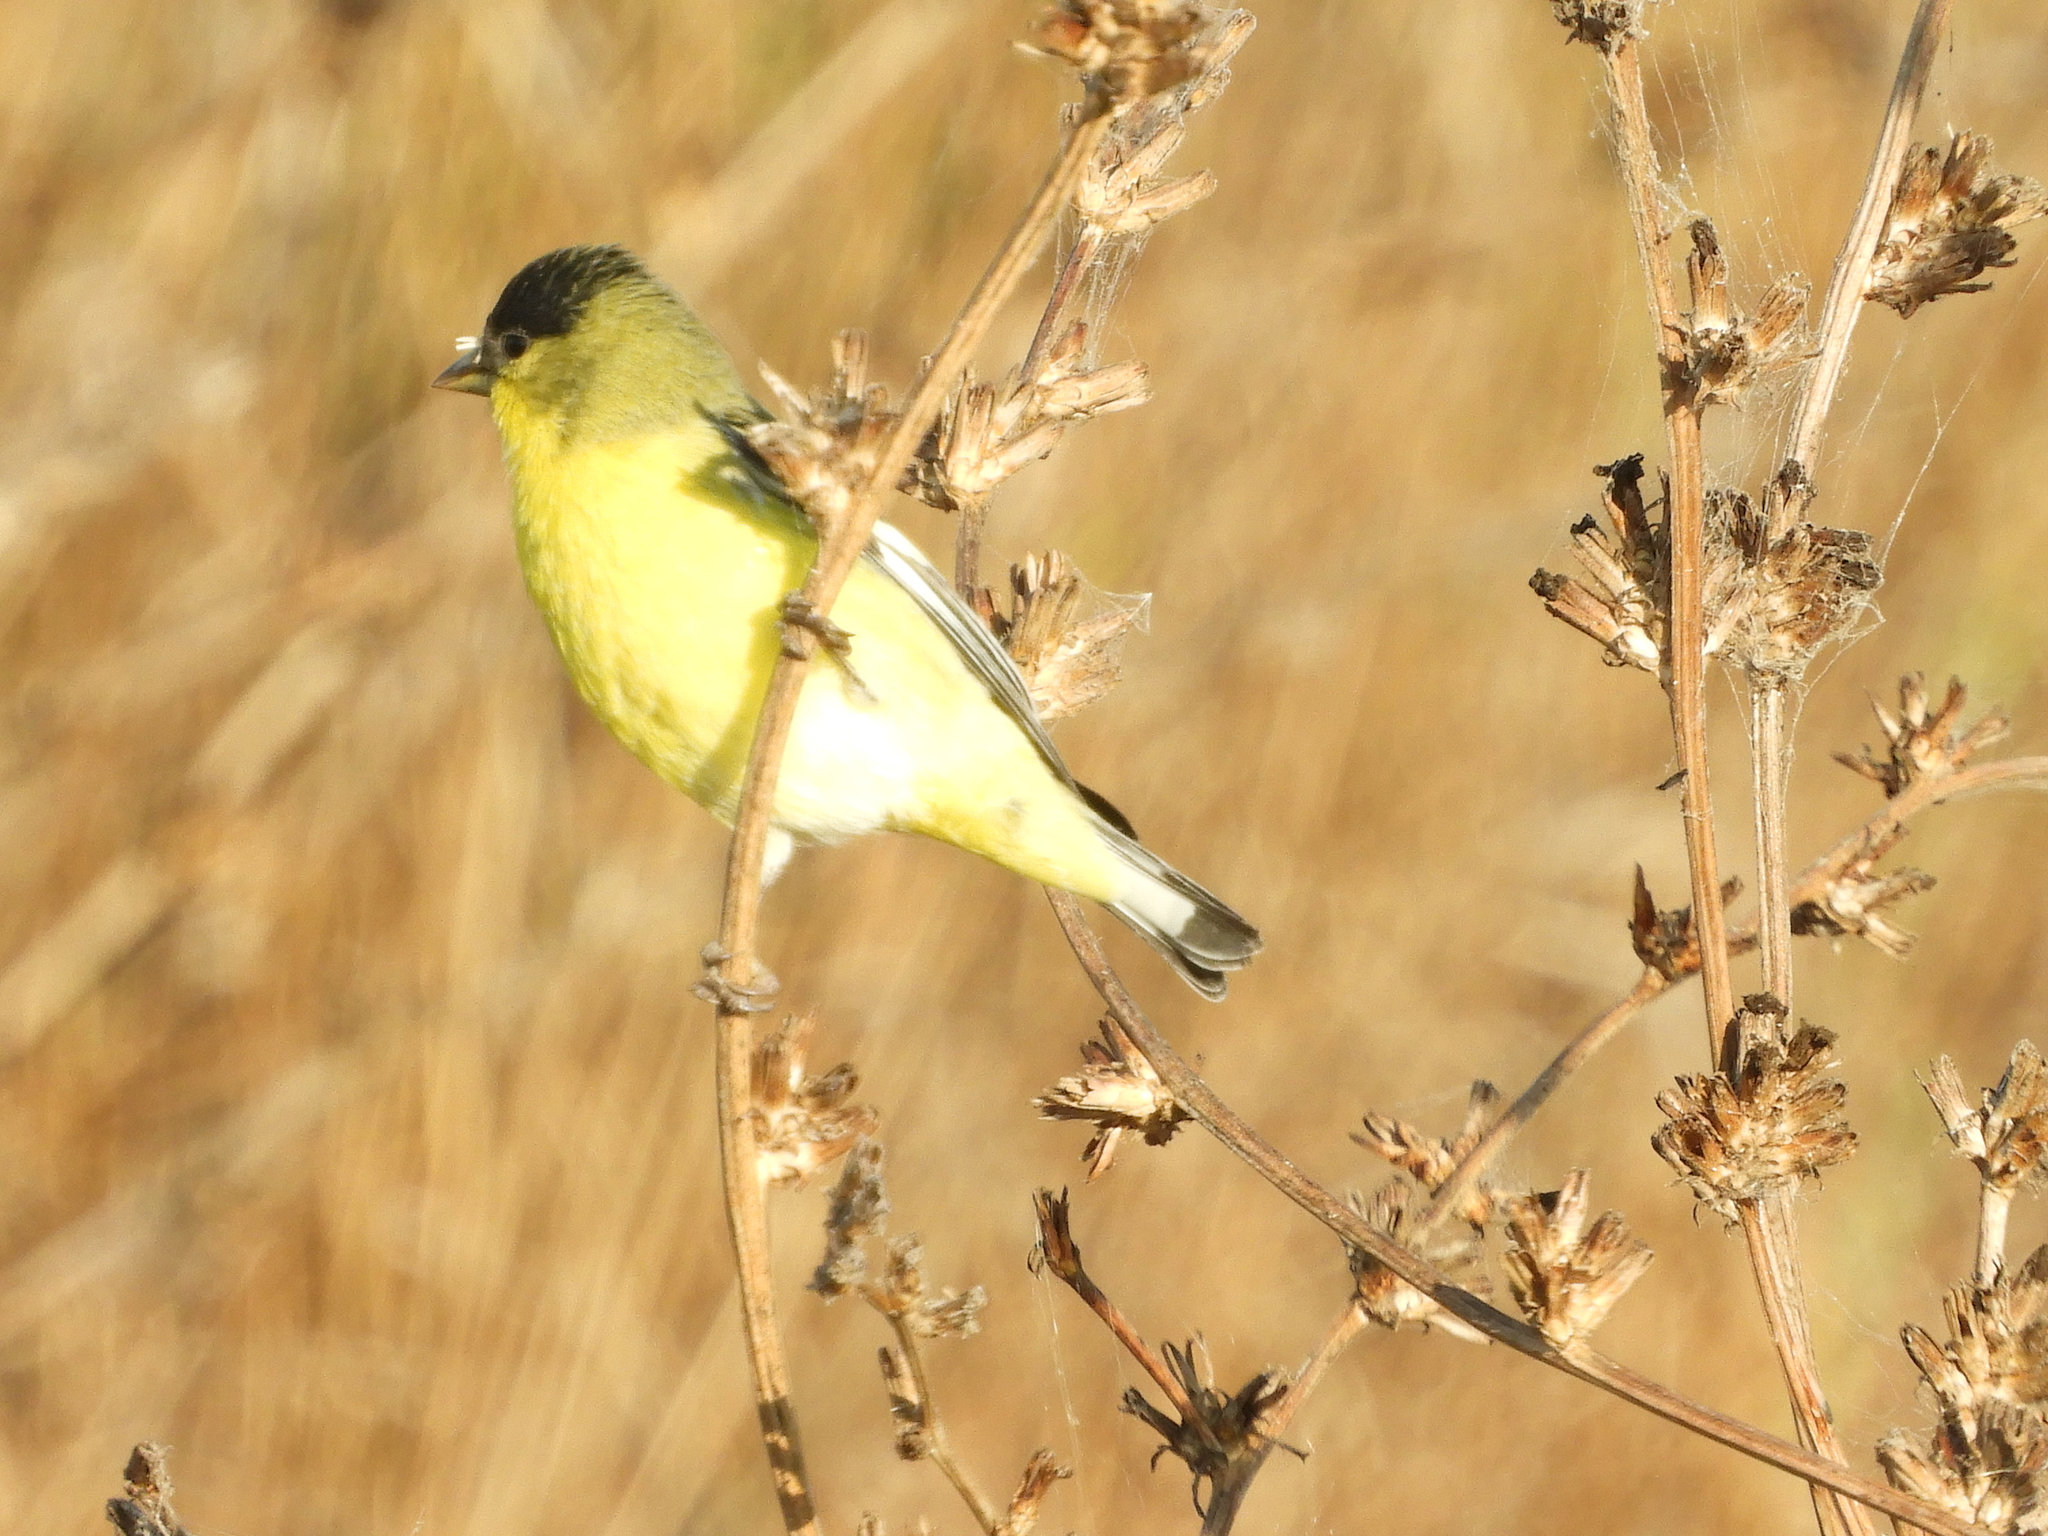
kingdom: Animalia
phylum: Chordata
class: Aves
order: Passeriformes
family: Fringillidae
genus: Spinus
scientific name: Spinus psaltria
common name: Lesser goldfinch
